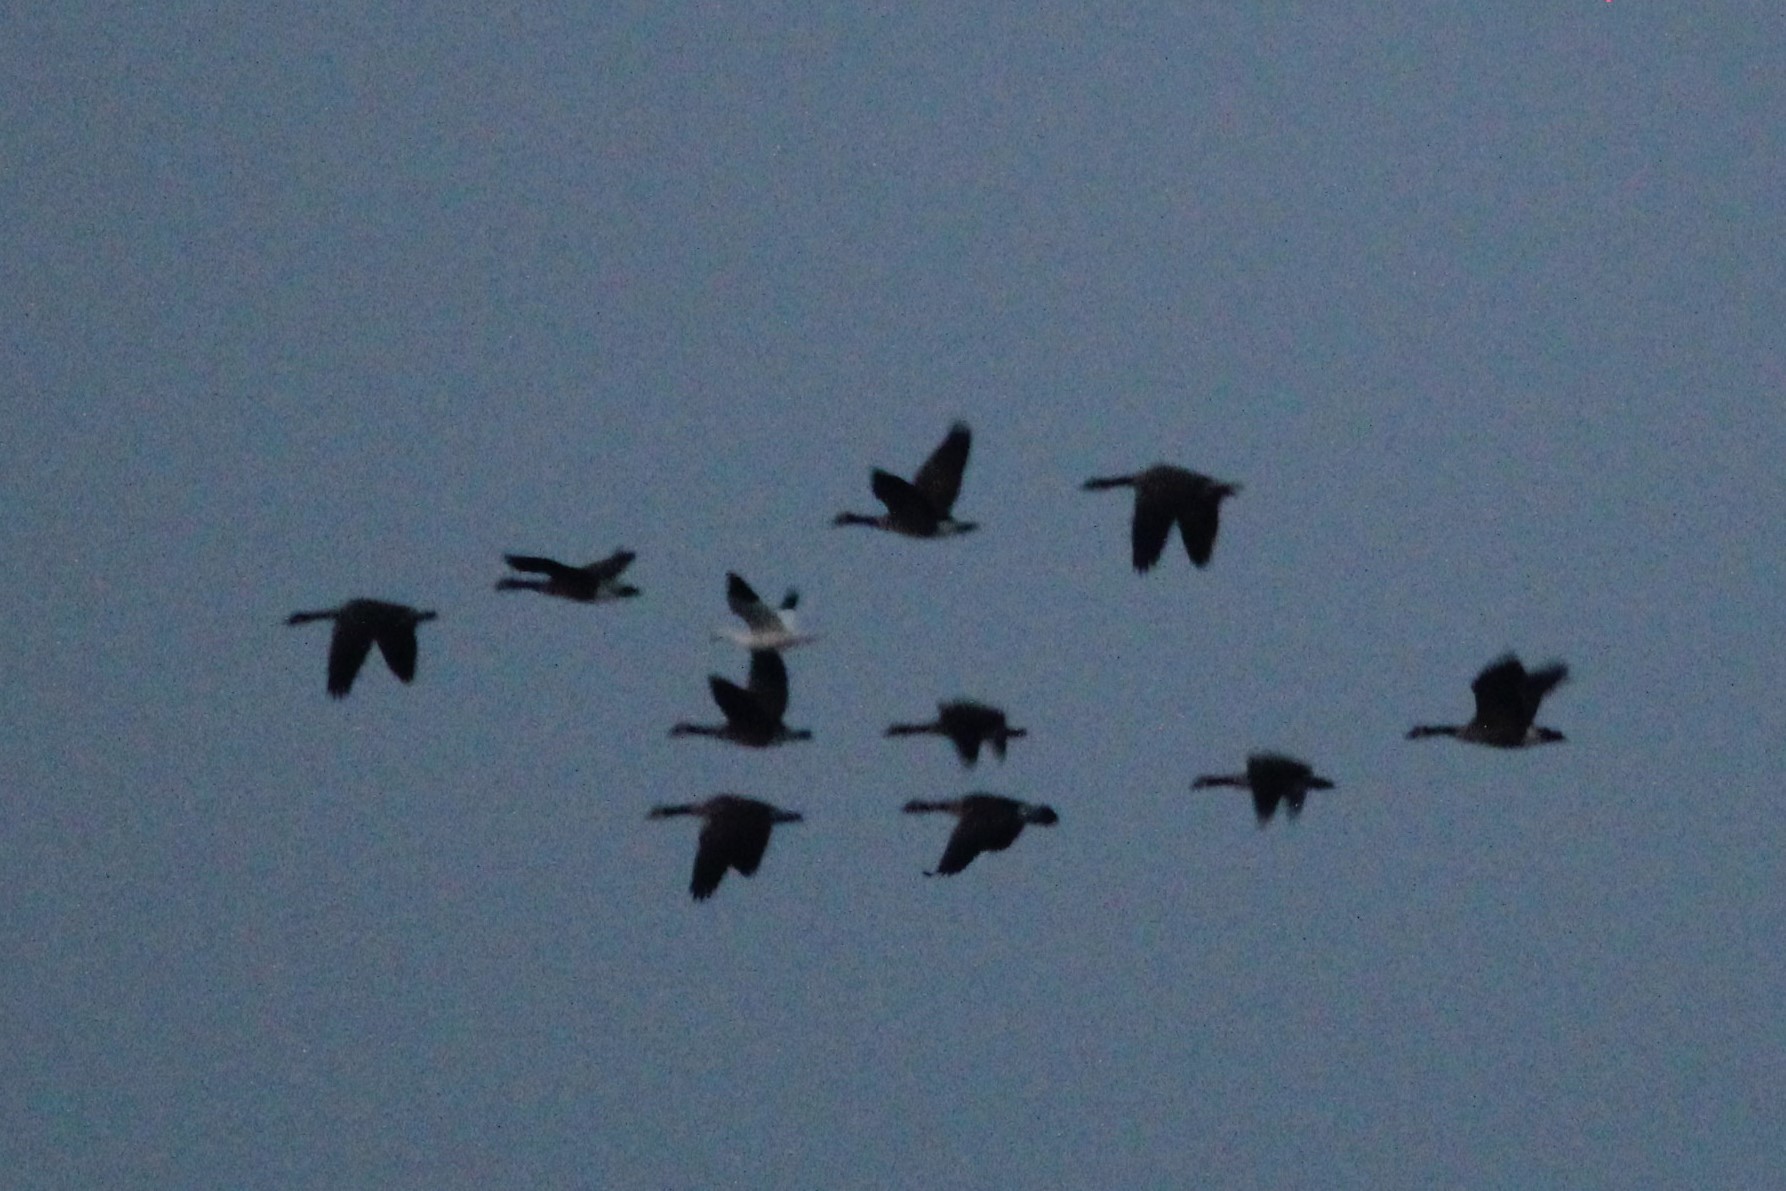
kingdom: Animalia
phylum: Chordata
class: Aves
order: Anseriformes
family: Anatidae
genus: Anser
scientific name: Anser rossii
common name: Ross's goose
